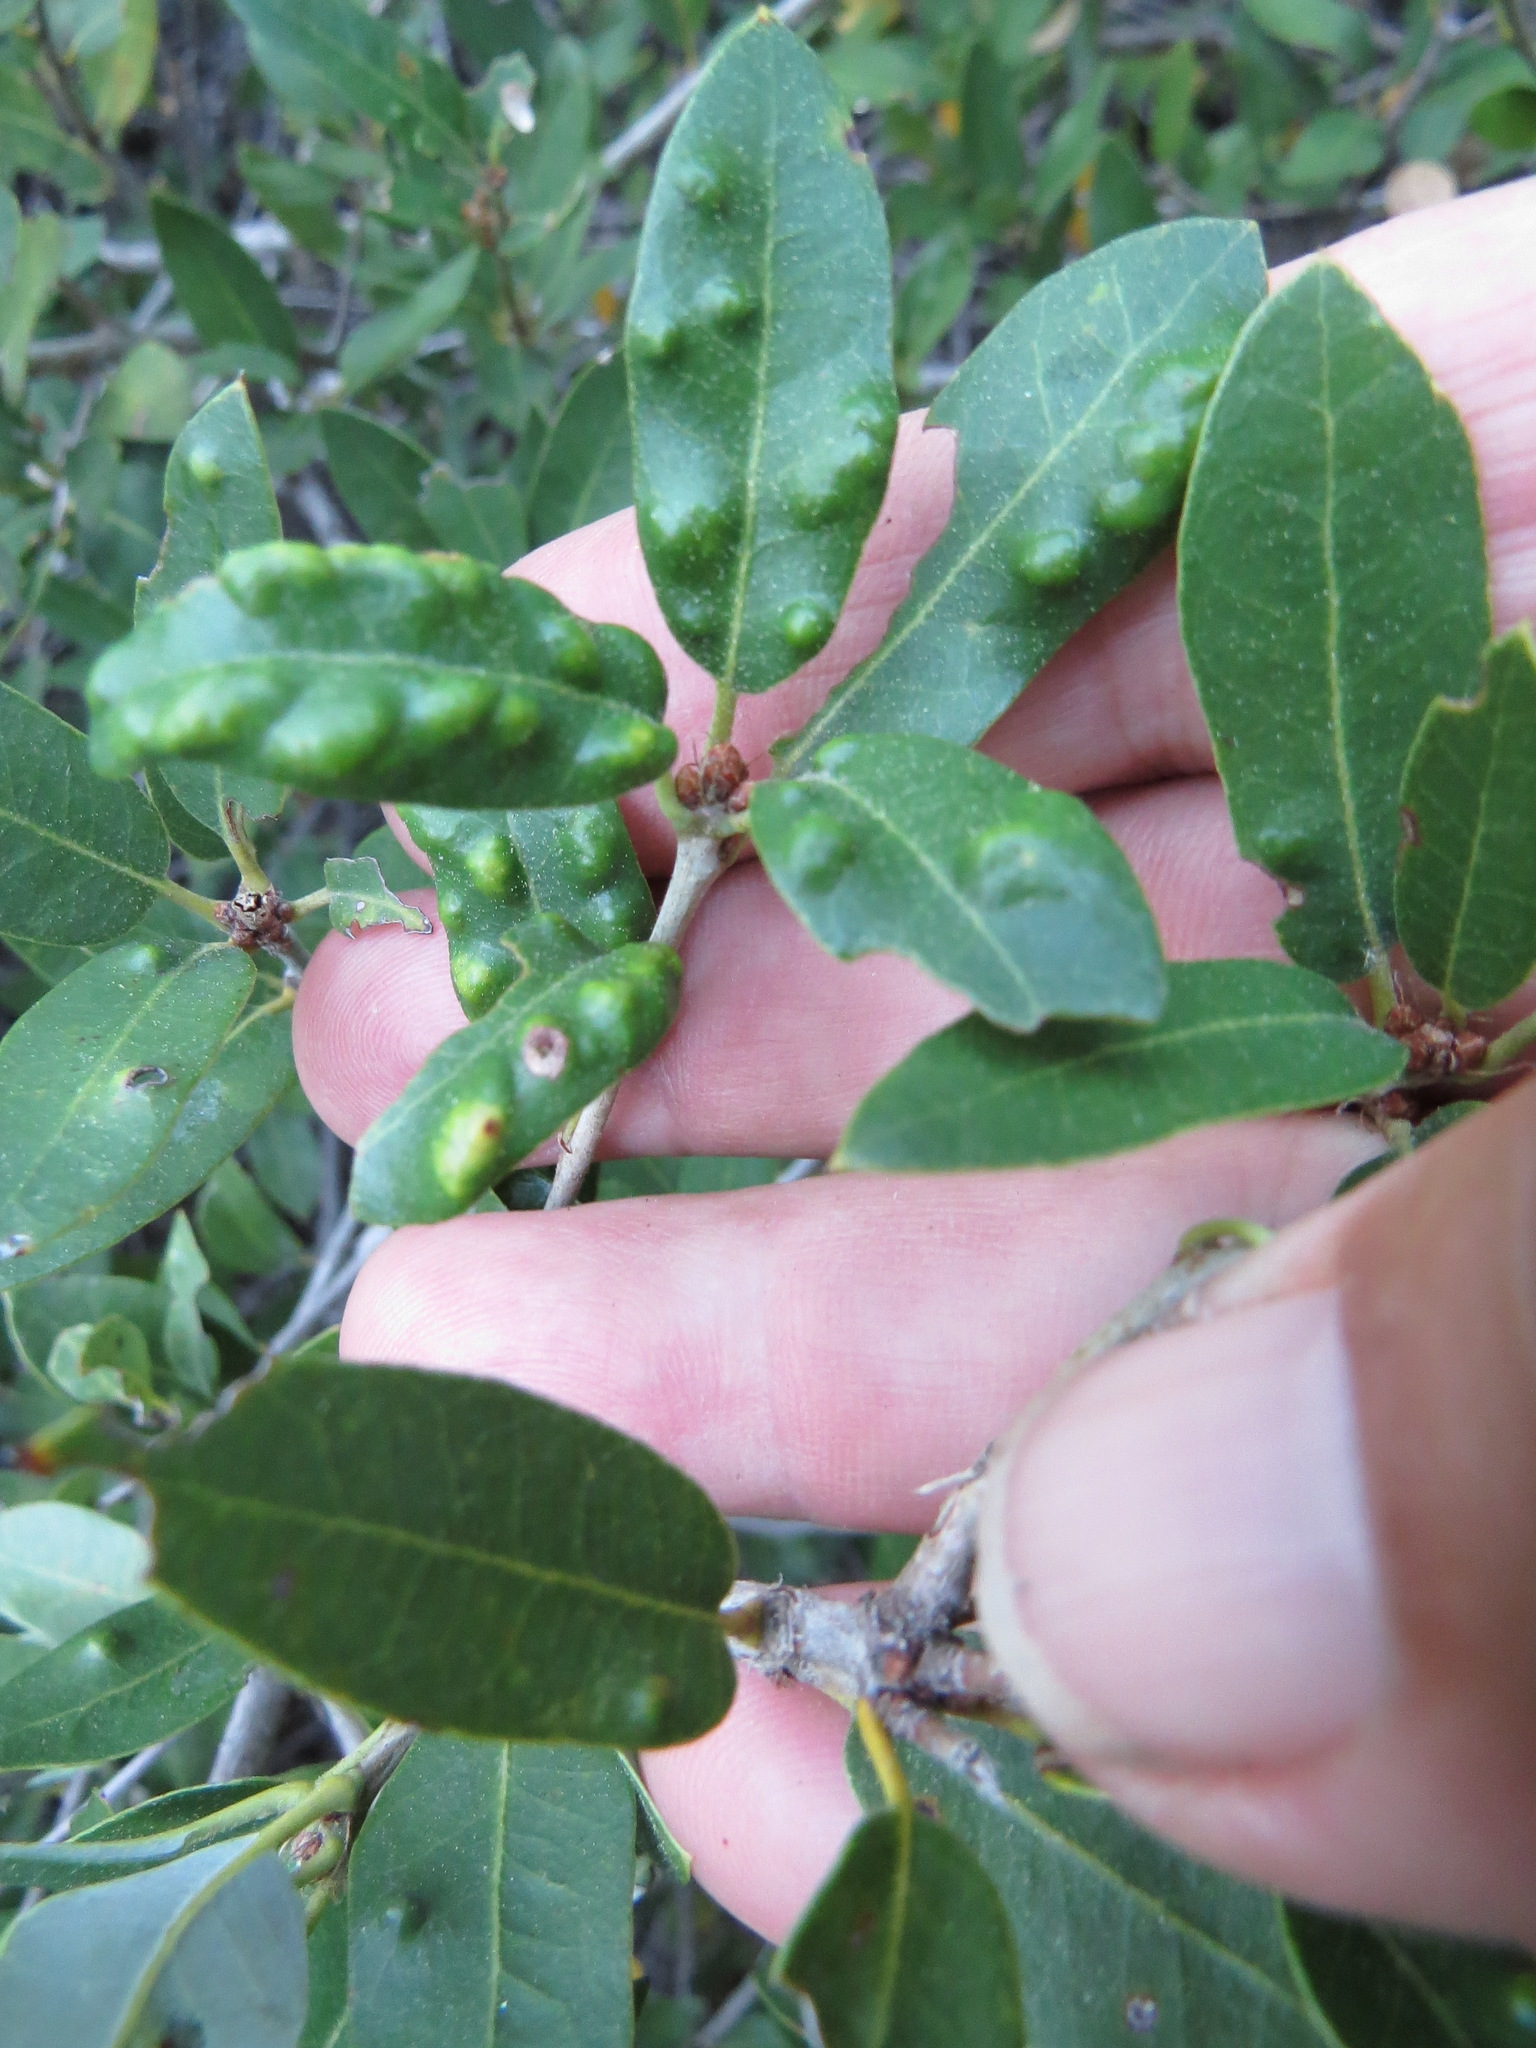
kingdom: Animalia
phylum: Arthropoda
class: Arachnida
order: Trombidiformes
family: Eriophyidae
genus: Aceria
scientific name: Aceria
